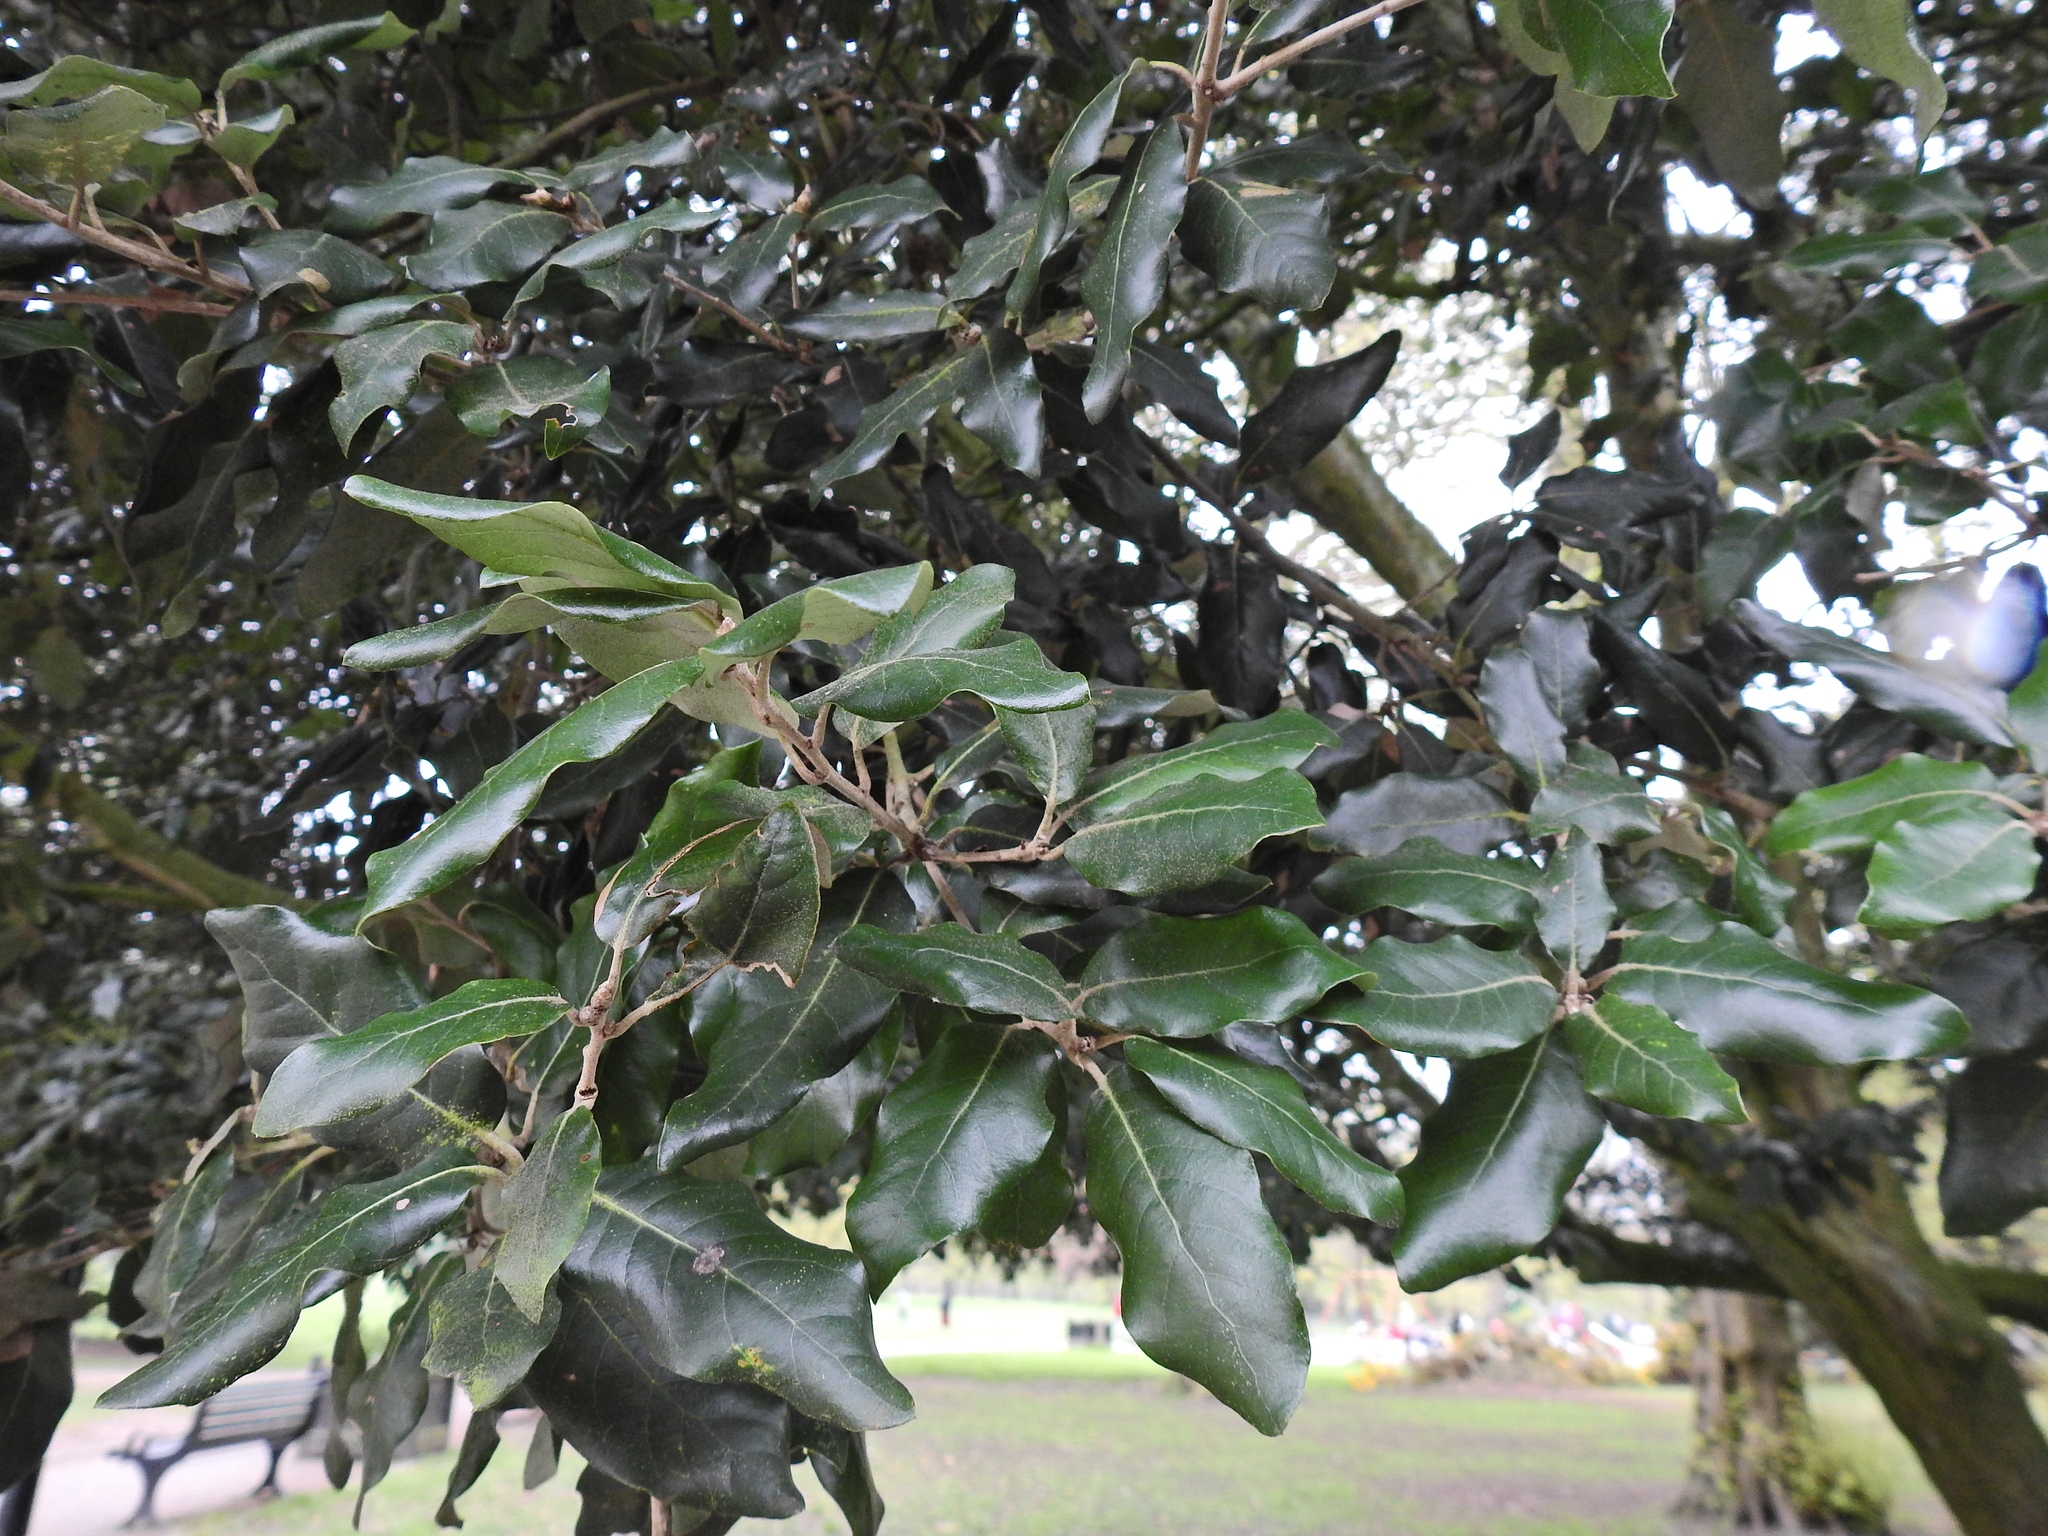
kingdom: Plantae
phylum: Tracheophyta
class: Magnoliopsida
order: Fagales
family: Fagaceae
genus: Quercus
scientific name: Quercus ilex
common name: Evergreen oak
